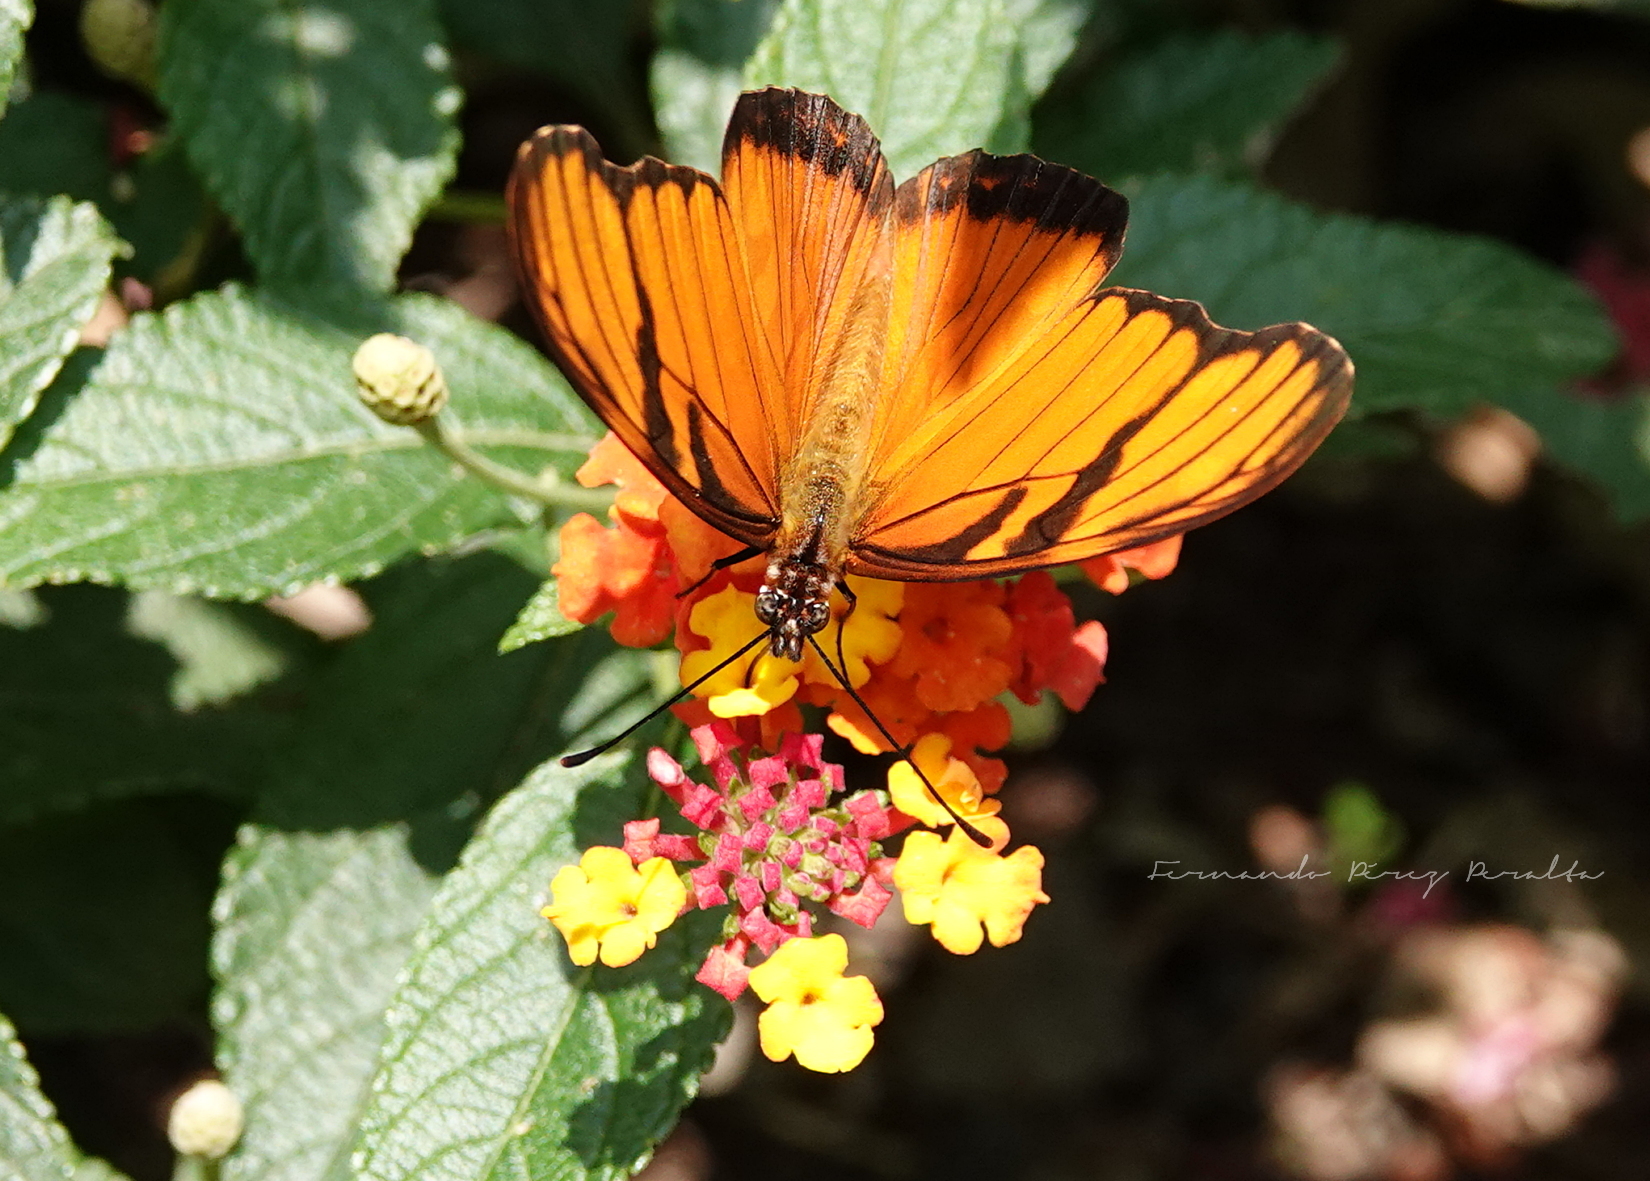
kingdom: Animalia
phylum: Arthropoda
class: Insecta
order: Lepidoptera
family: Nymphalidae
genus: Dione
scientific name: Dione juno
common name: Juno silverspot
